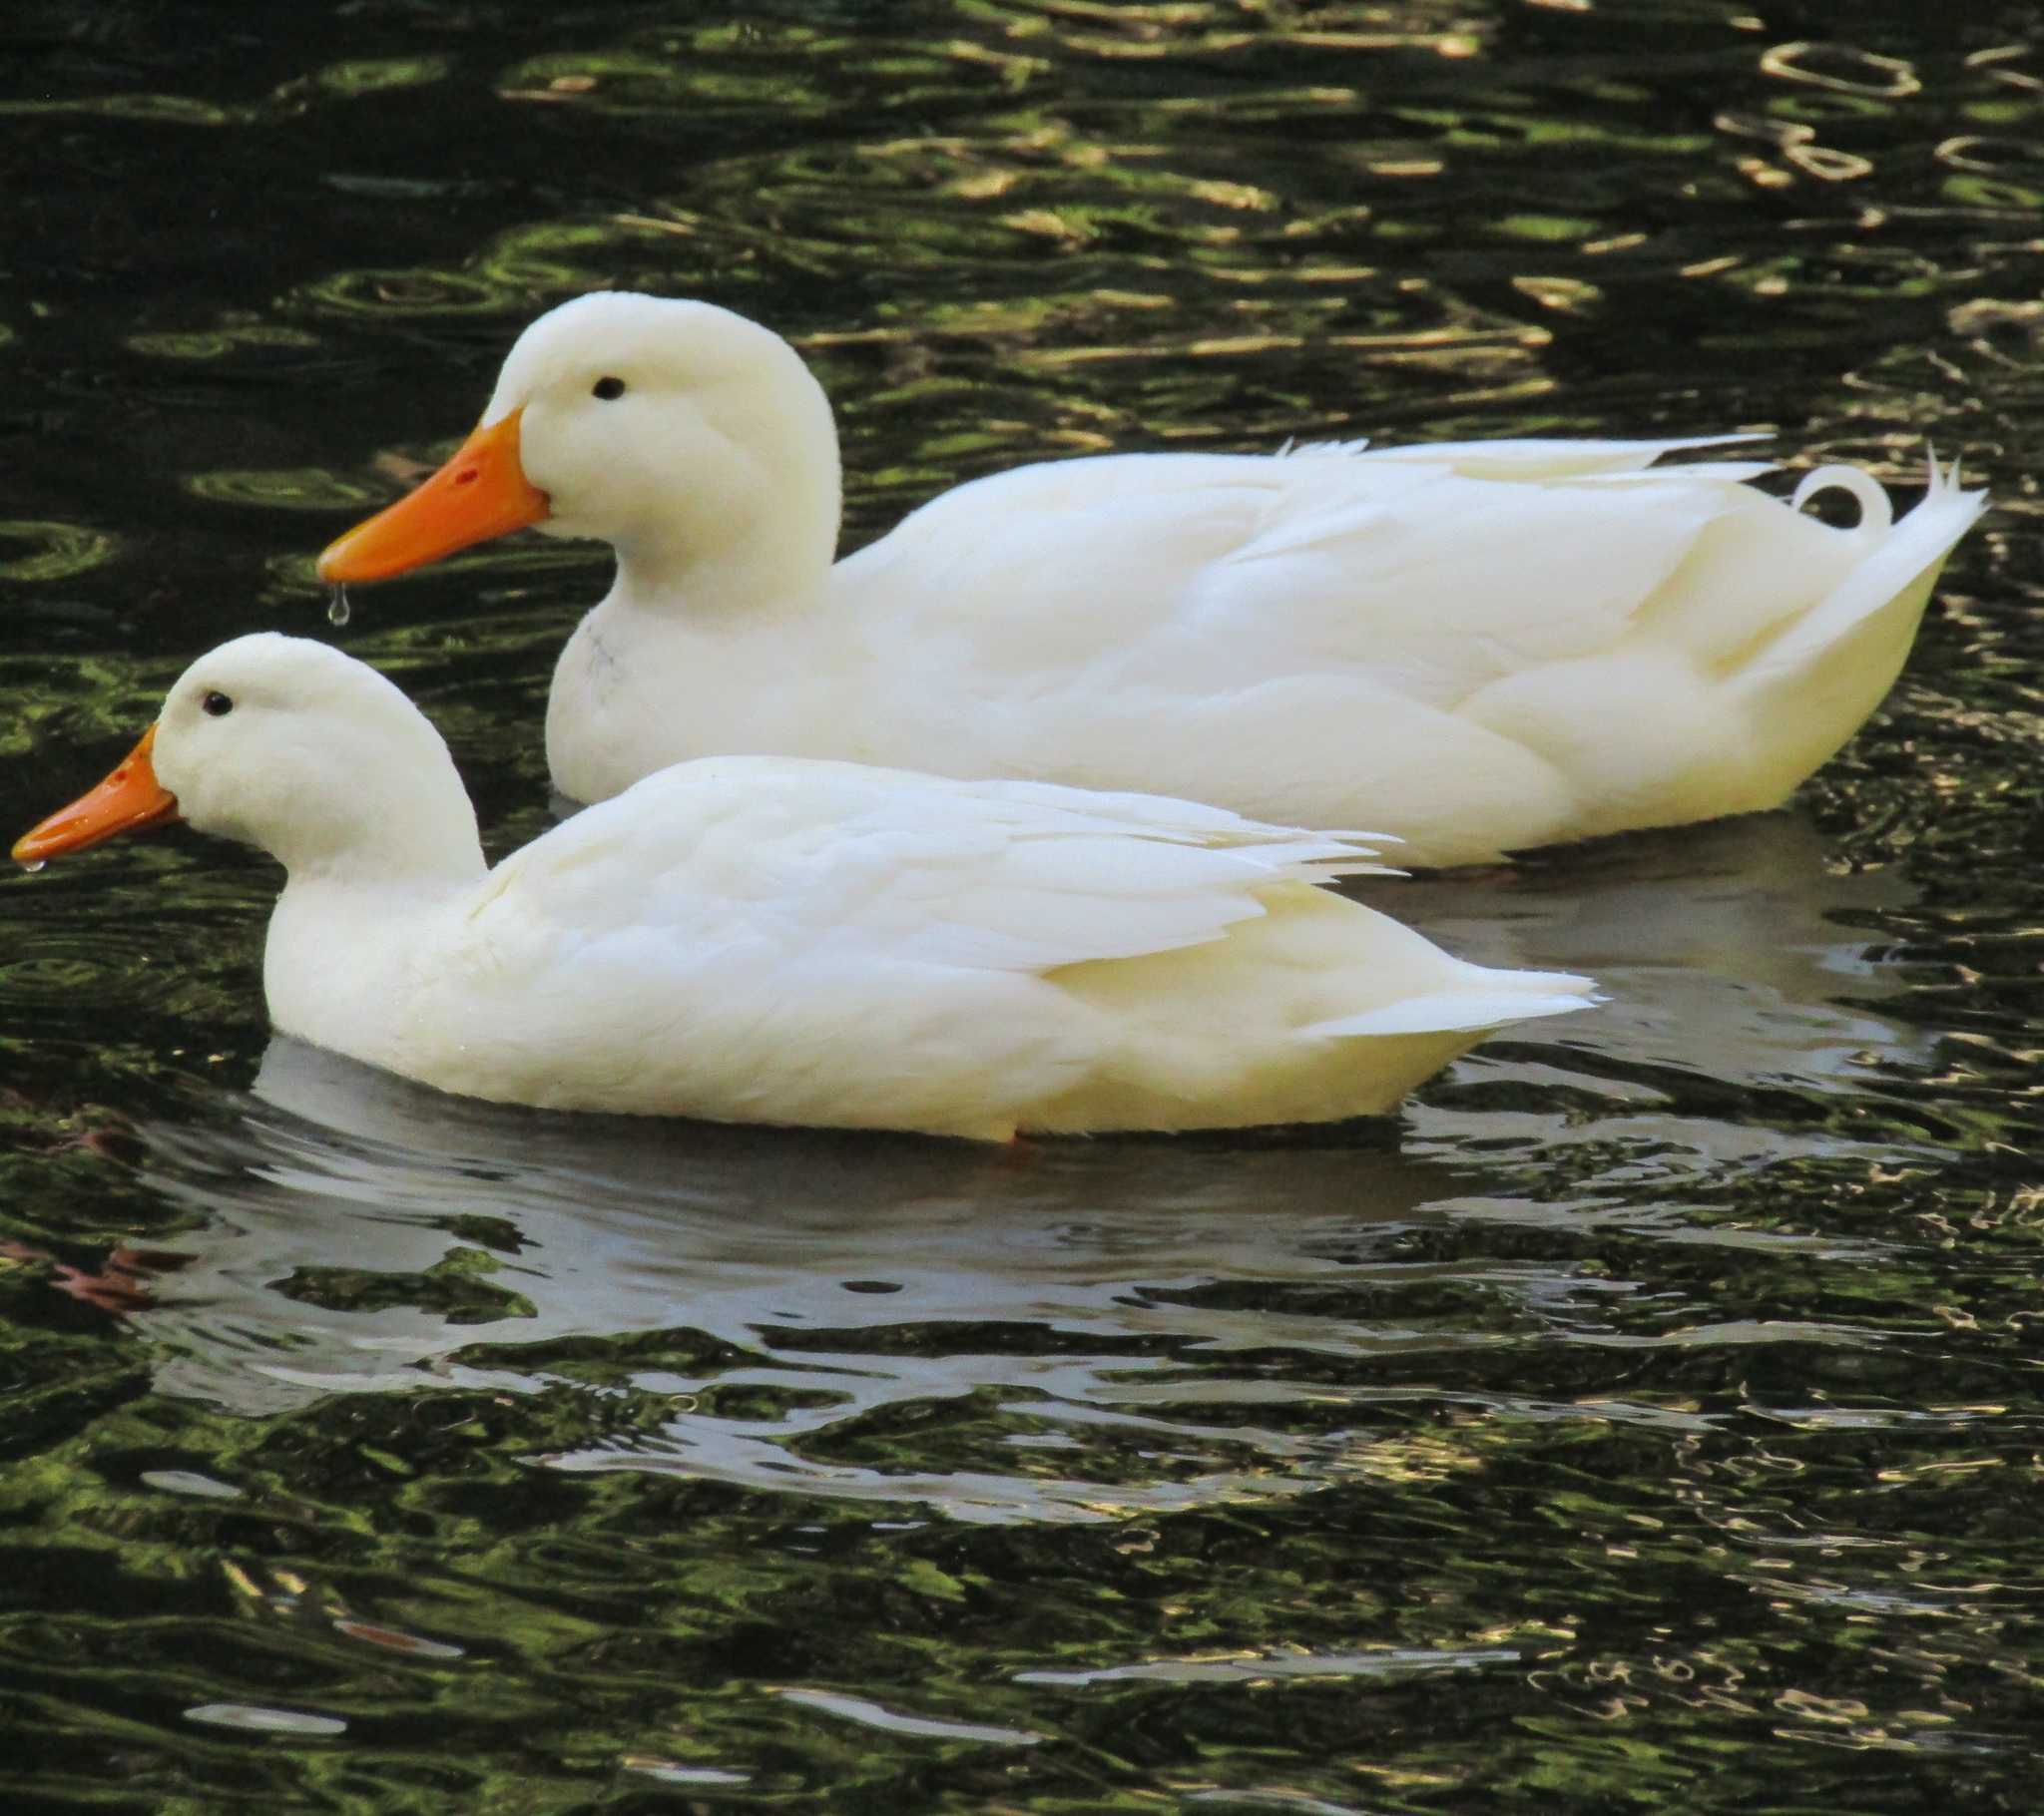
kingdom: Animalia
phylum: Chordata
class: Aves
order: Anseriformes
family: Anatidae
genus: Anas
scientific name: Anas platyrhynchos
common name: Mallard
